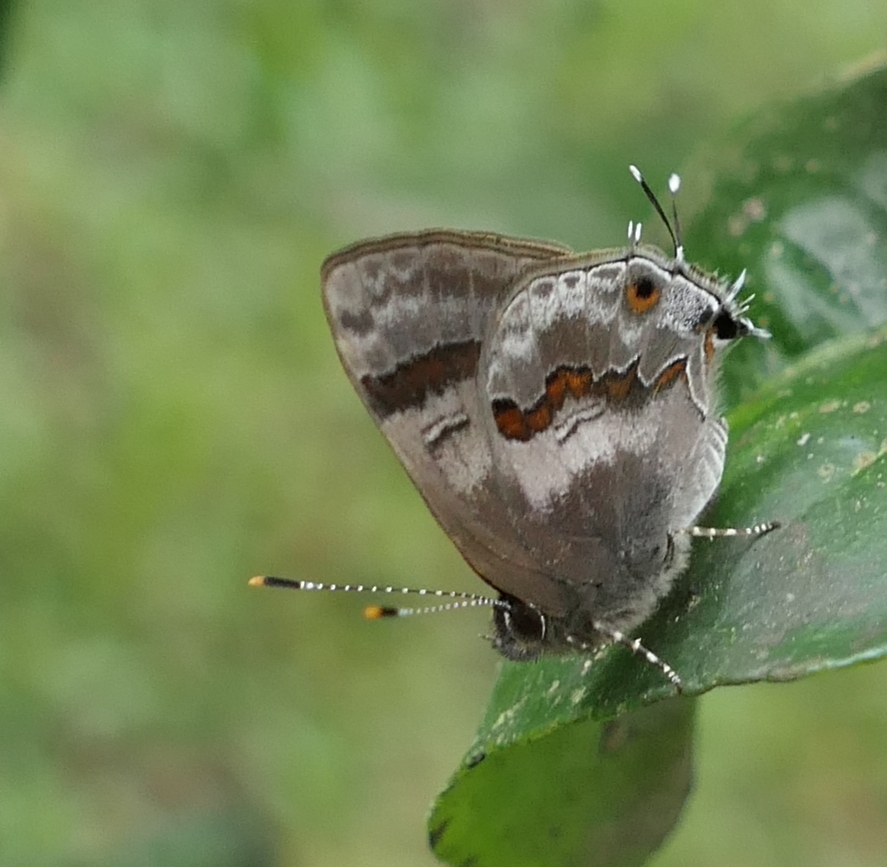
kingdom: Animalia
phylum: Arthropoda
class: Insecta
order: Lepidoptera
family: Lycaenidae
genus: Thecla
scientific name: Thecla ecbatana
